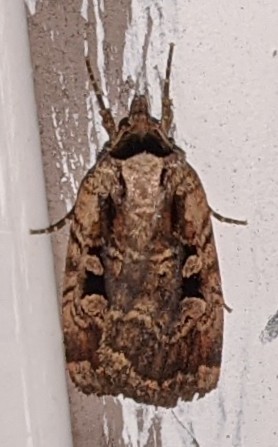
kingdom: Animalia
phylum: Arthropoda
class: Insecta
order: Lepidoptera
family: Noctuidae
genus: Eueretagrotis
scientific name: Eueretagrotis perattentus
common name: Two-spot dart moth
